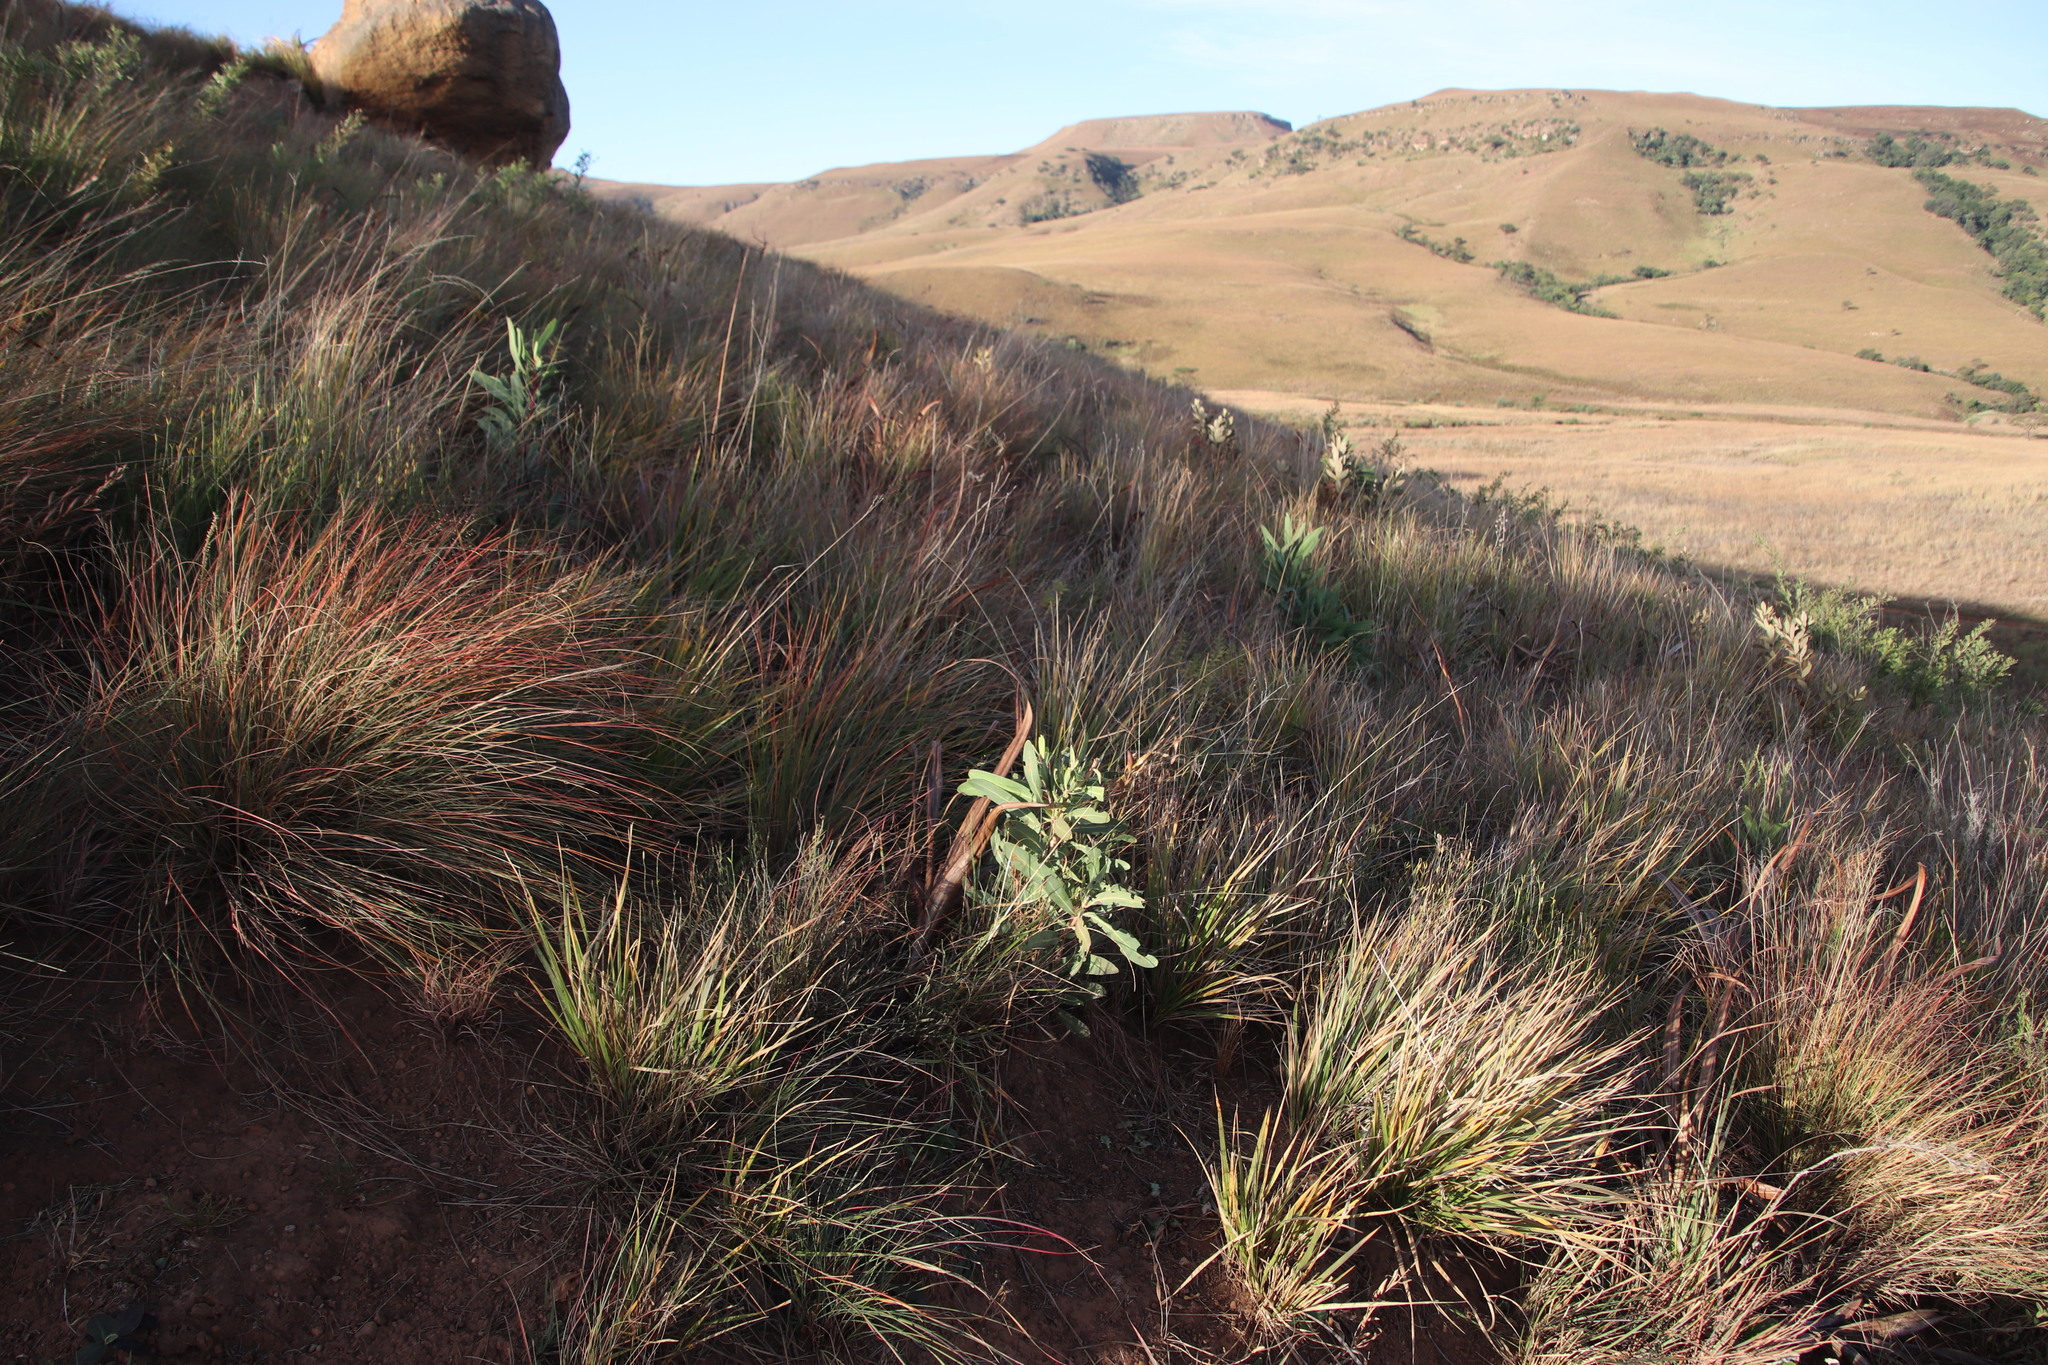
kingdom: Plantae
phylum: Tracheophyta
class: Magnoliopsida
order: Proteales
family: Proteaceae
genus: Protea
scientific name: Protea caffra
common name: Common sugarbush
